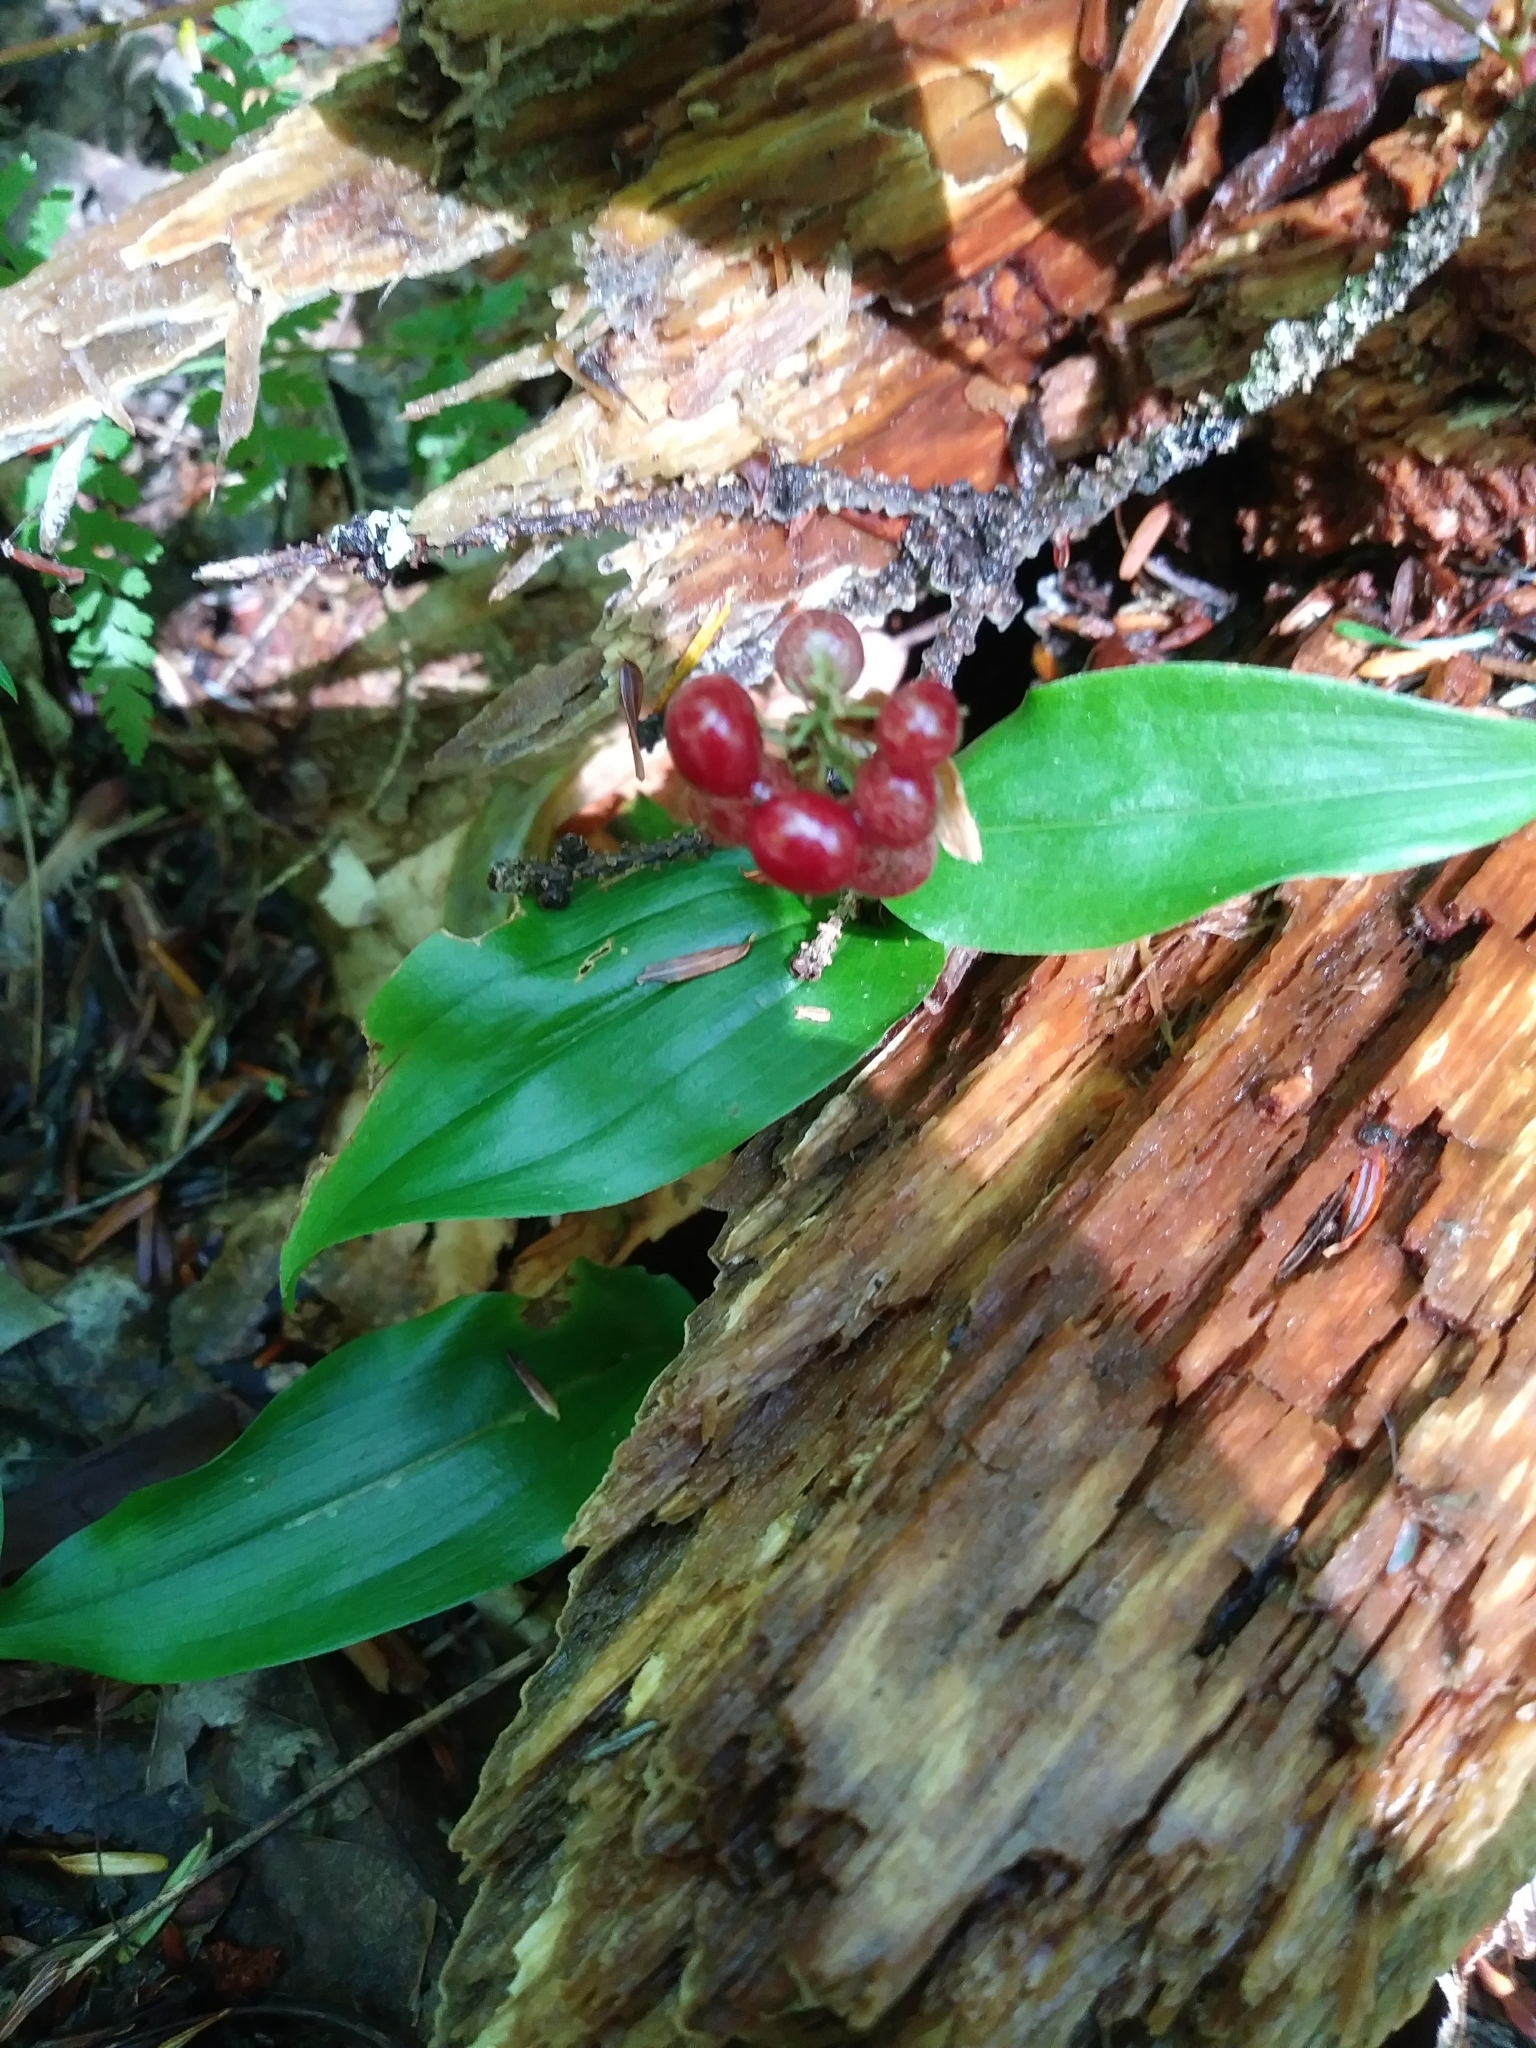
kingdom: Plantae
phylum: Tracheophyta
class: Liliopsida
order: Asparagales
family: Asparagaceae
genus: Maianthemum
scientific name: Maianthemum canadense
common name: False lily-of-the-valley
